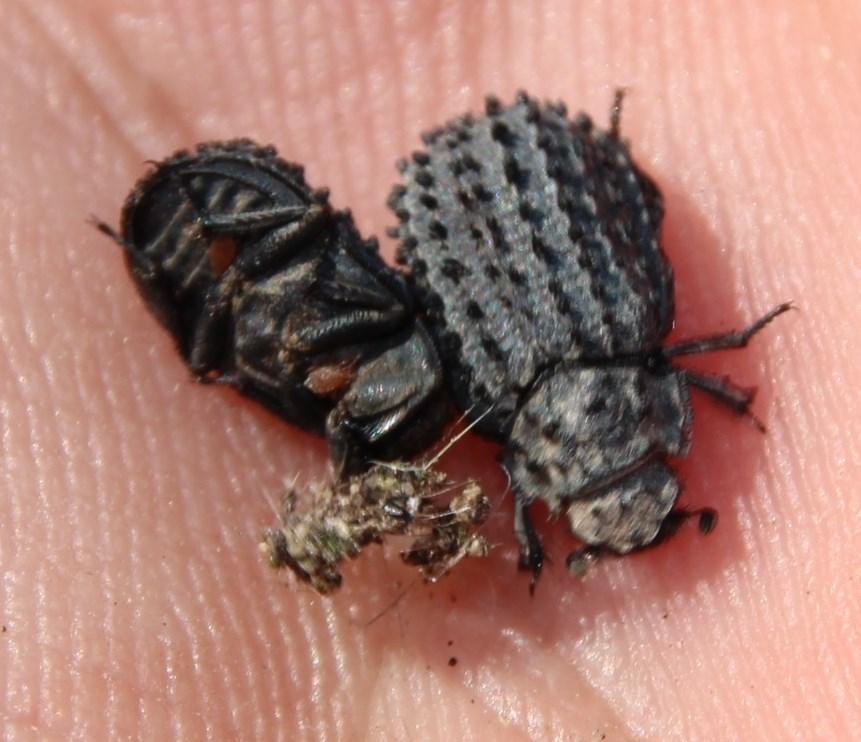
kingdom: Animalia
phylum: Arthropoda
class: Insecta
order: Coleoptera
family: Trogidae
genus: Phoberus
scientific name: Phoberus fascicularis
